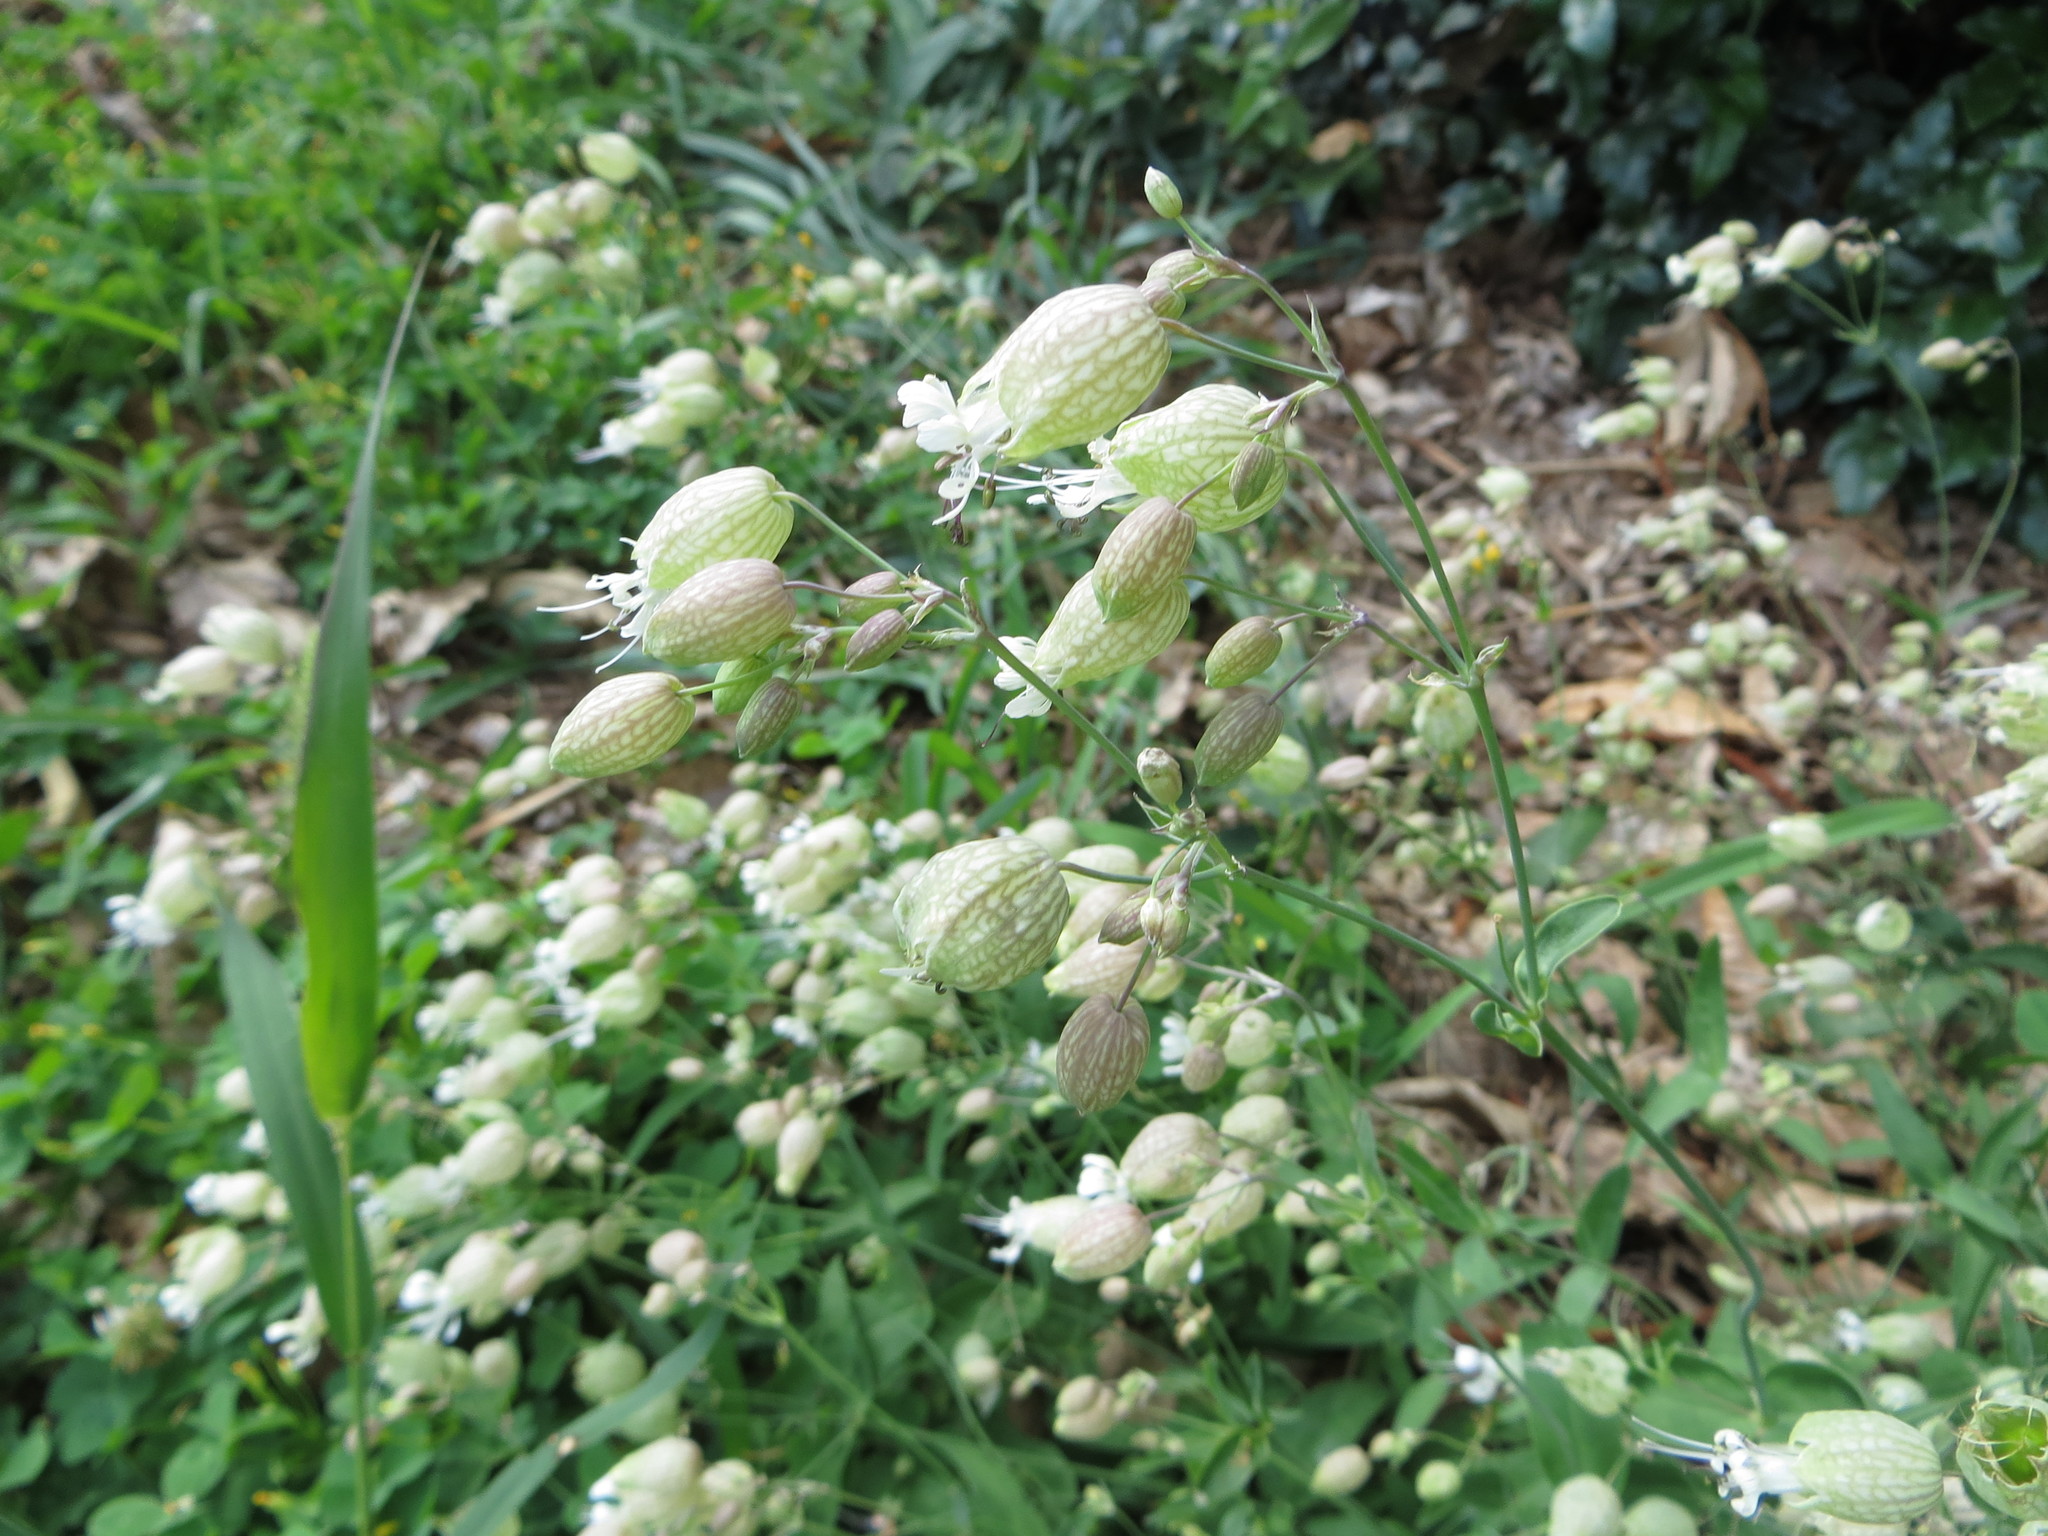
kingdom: Plantae
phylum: Tracheophyta
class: Magnoliopsida
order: Caryophyllales
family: Caryophyllaceae
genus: Silene
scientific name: Silene vulgaris
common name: Bladder campion
